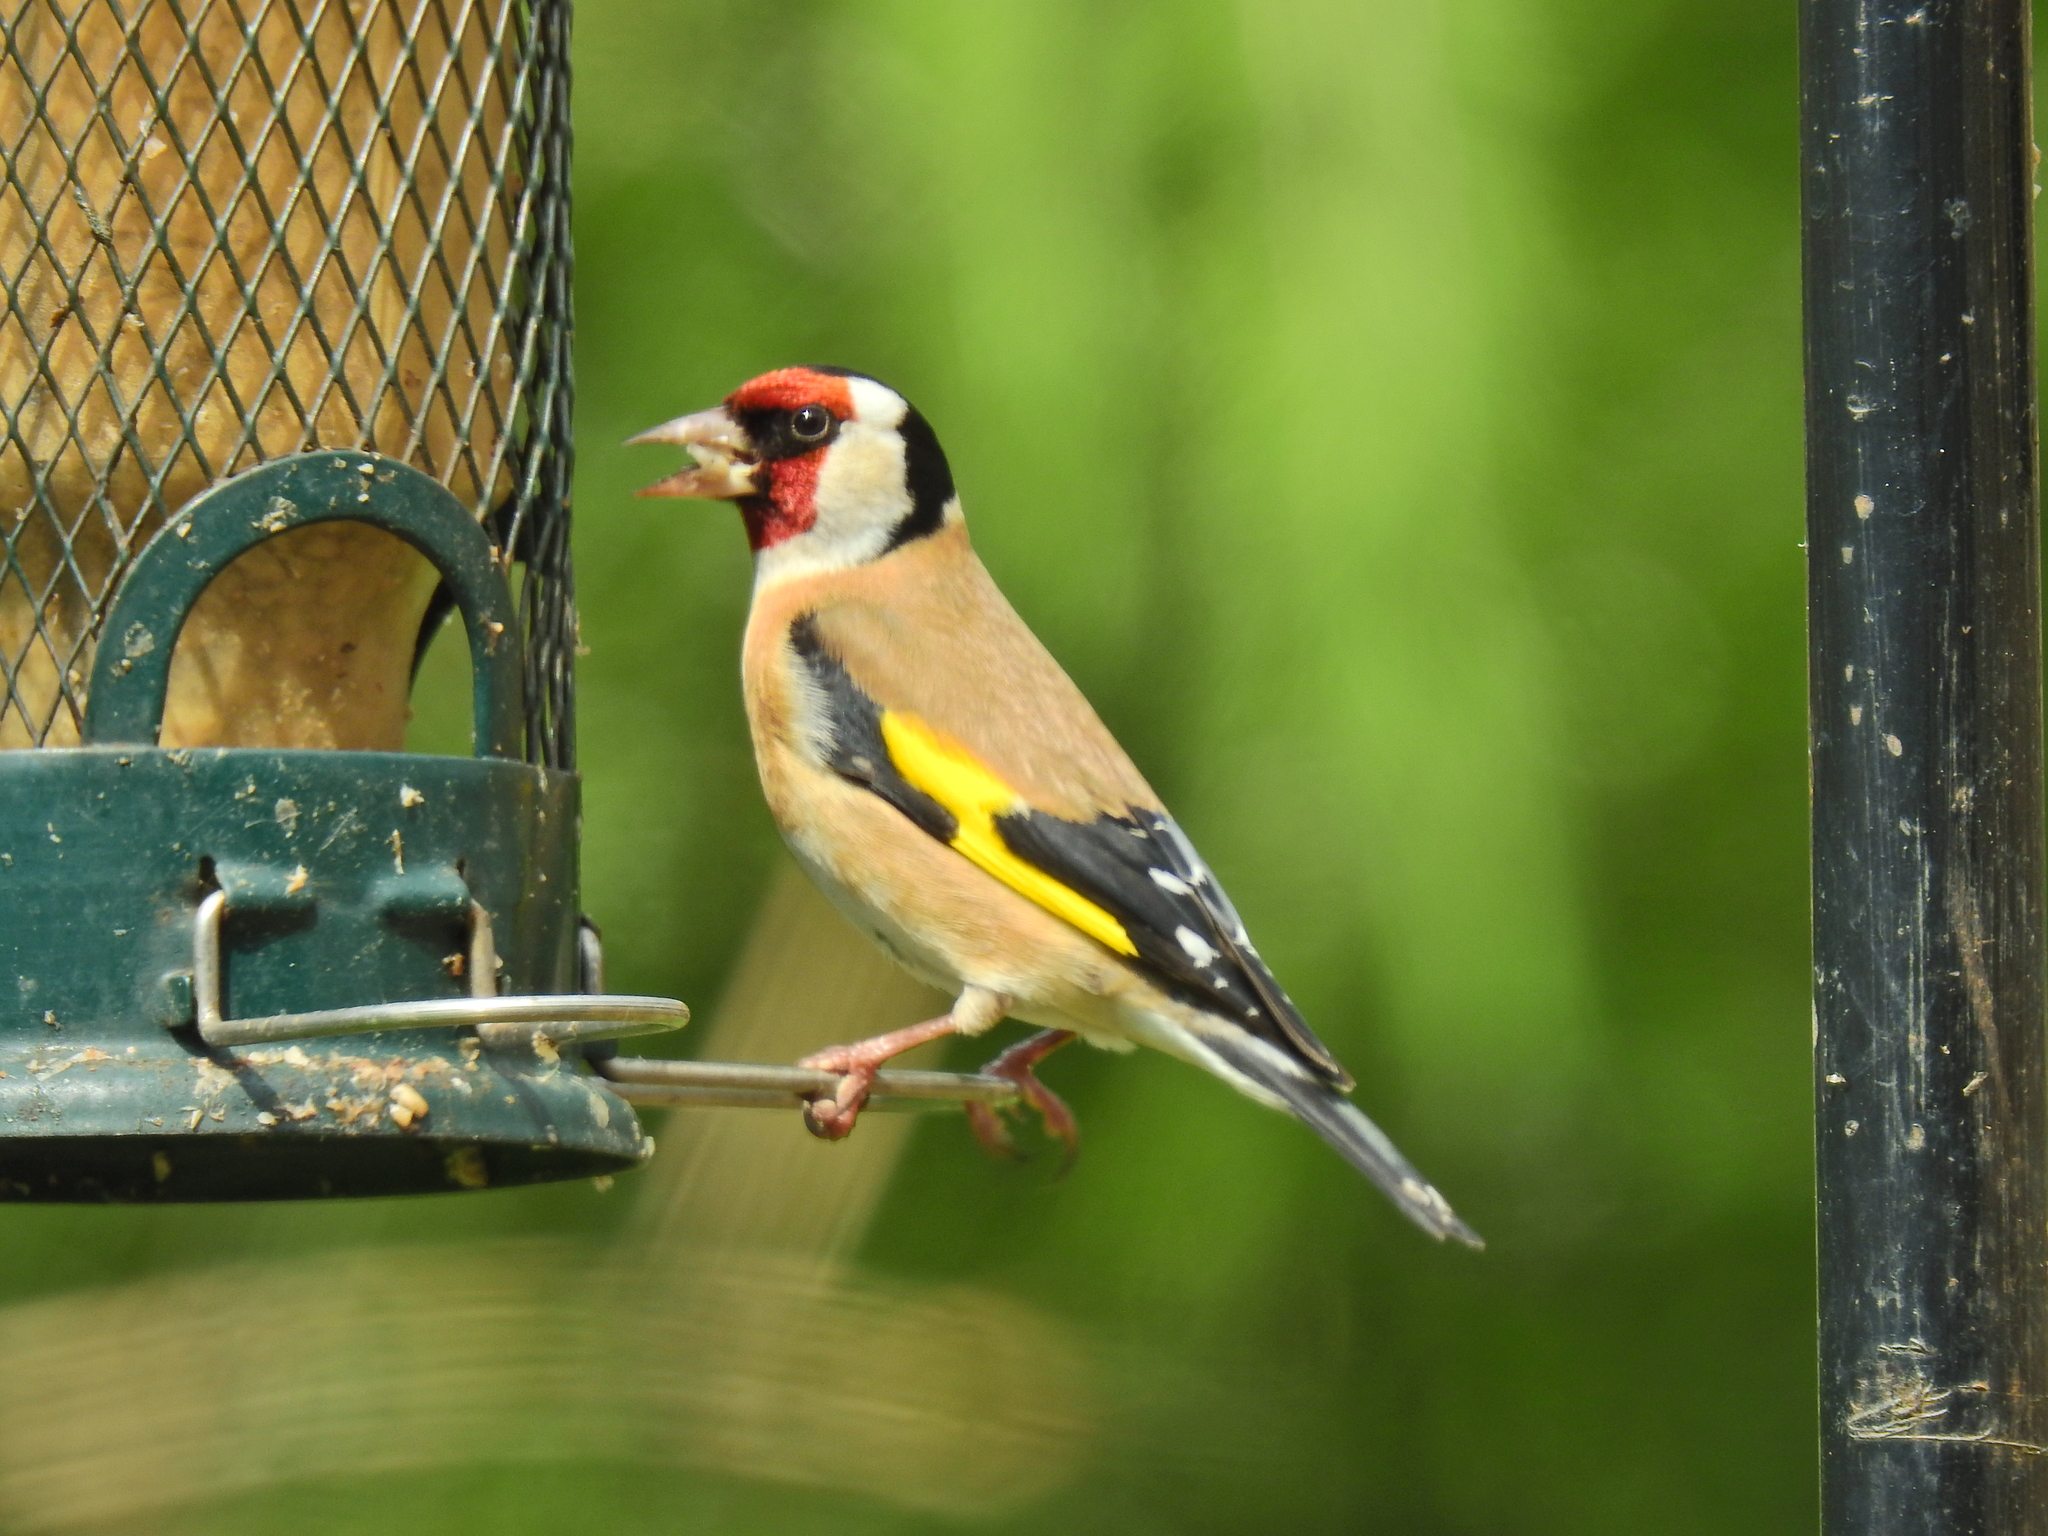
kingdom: Animalia
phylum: Chordata
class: Aves
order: Passeriformes
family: Fringillidae
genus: Carduelis
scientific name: Carduelis carduelis
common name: European goldfinch
